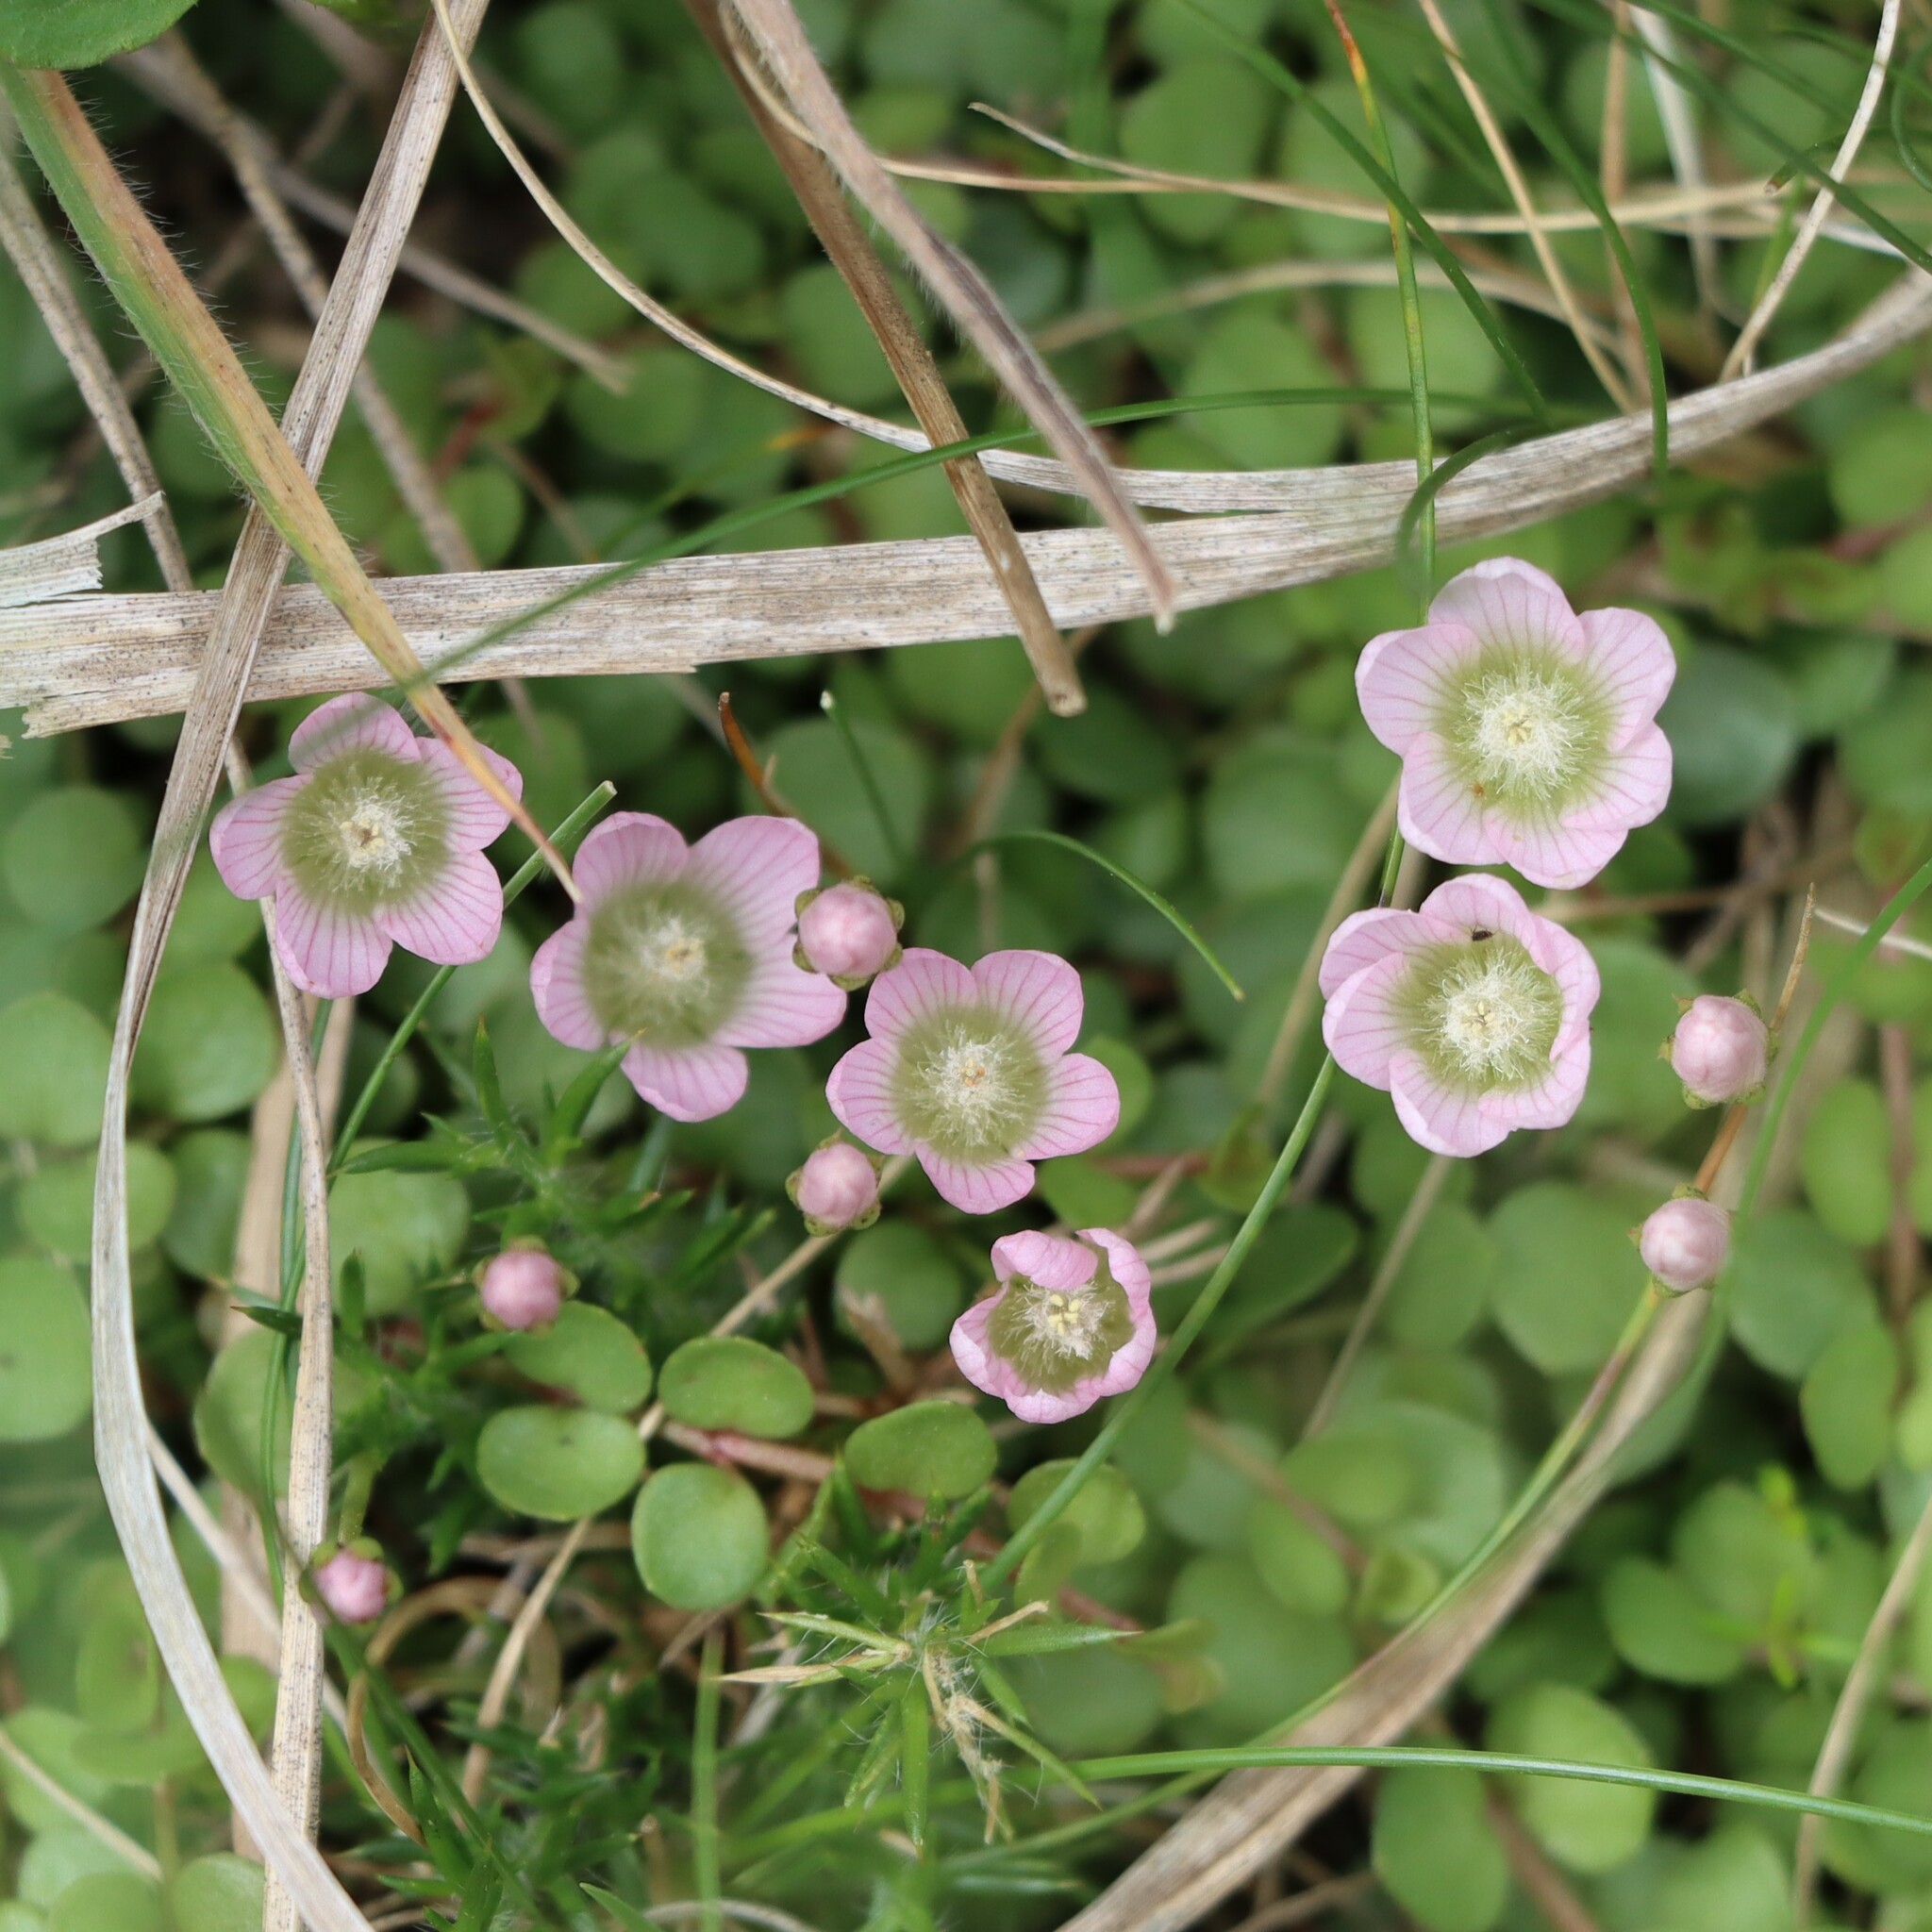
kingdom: Plantae
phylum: Tracheophyta
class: Magnoliopsida
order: Ericales
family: Primulaceae
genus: Lysimachia
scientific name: Lysimachia tenella
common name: European bog pimpernel
